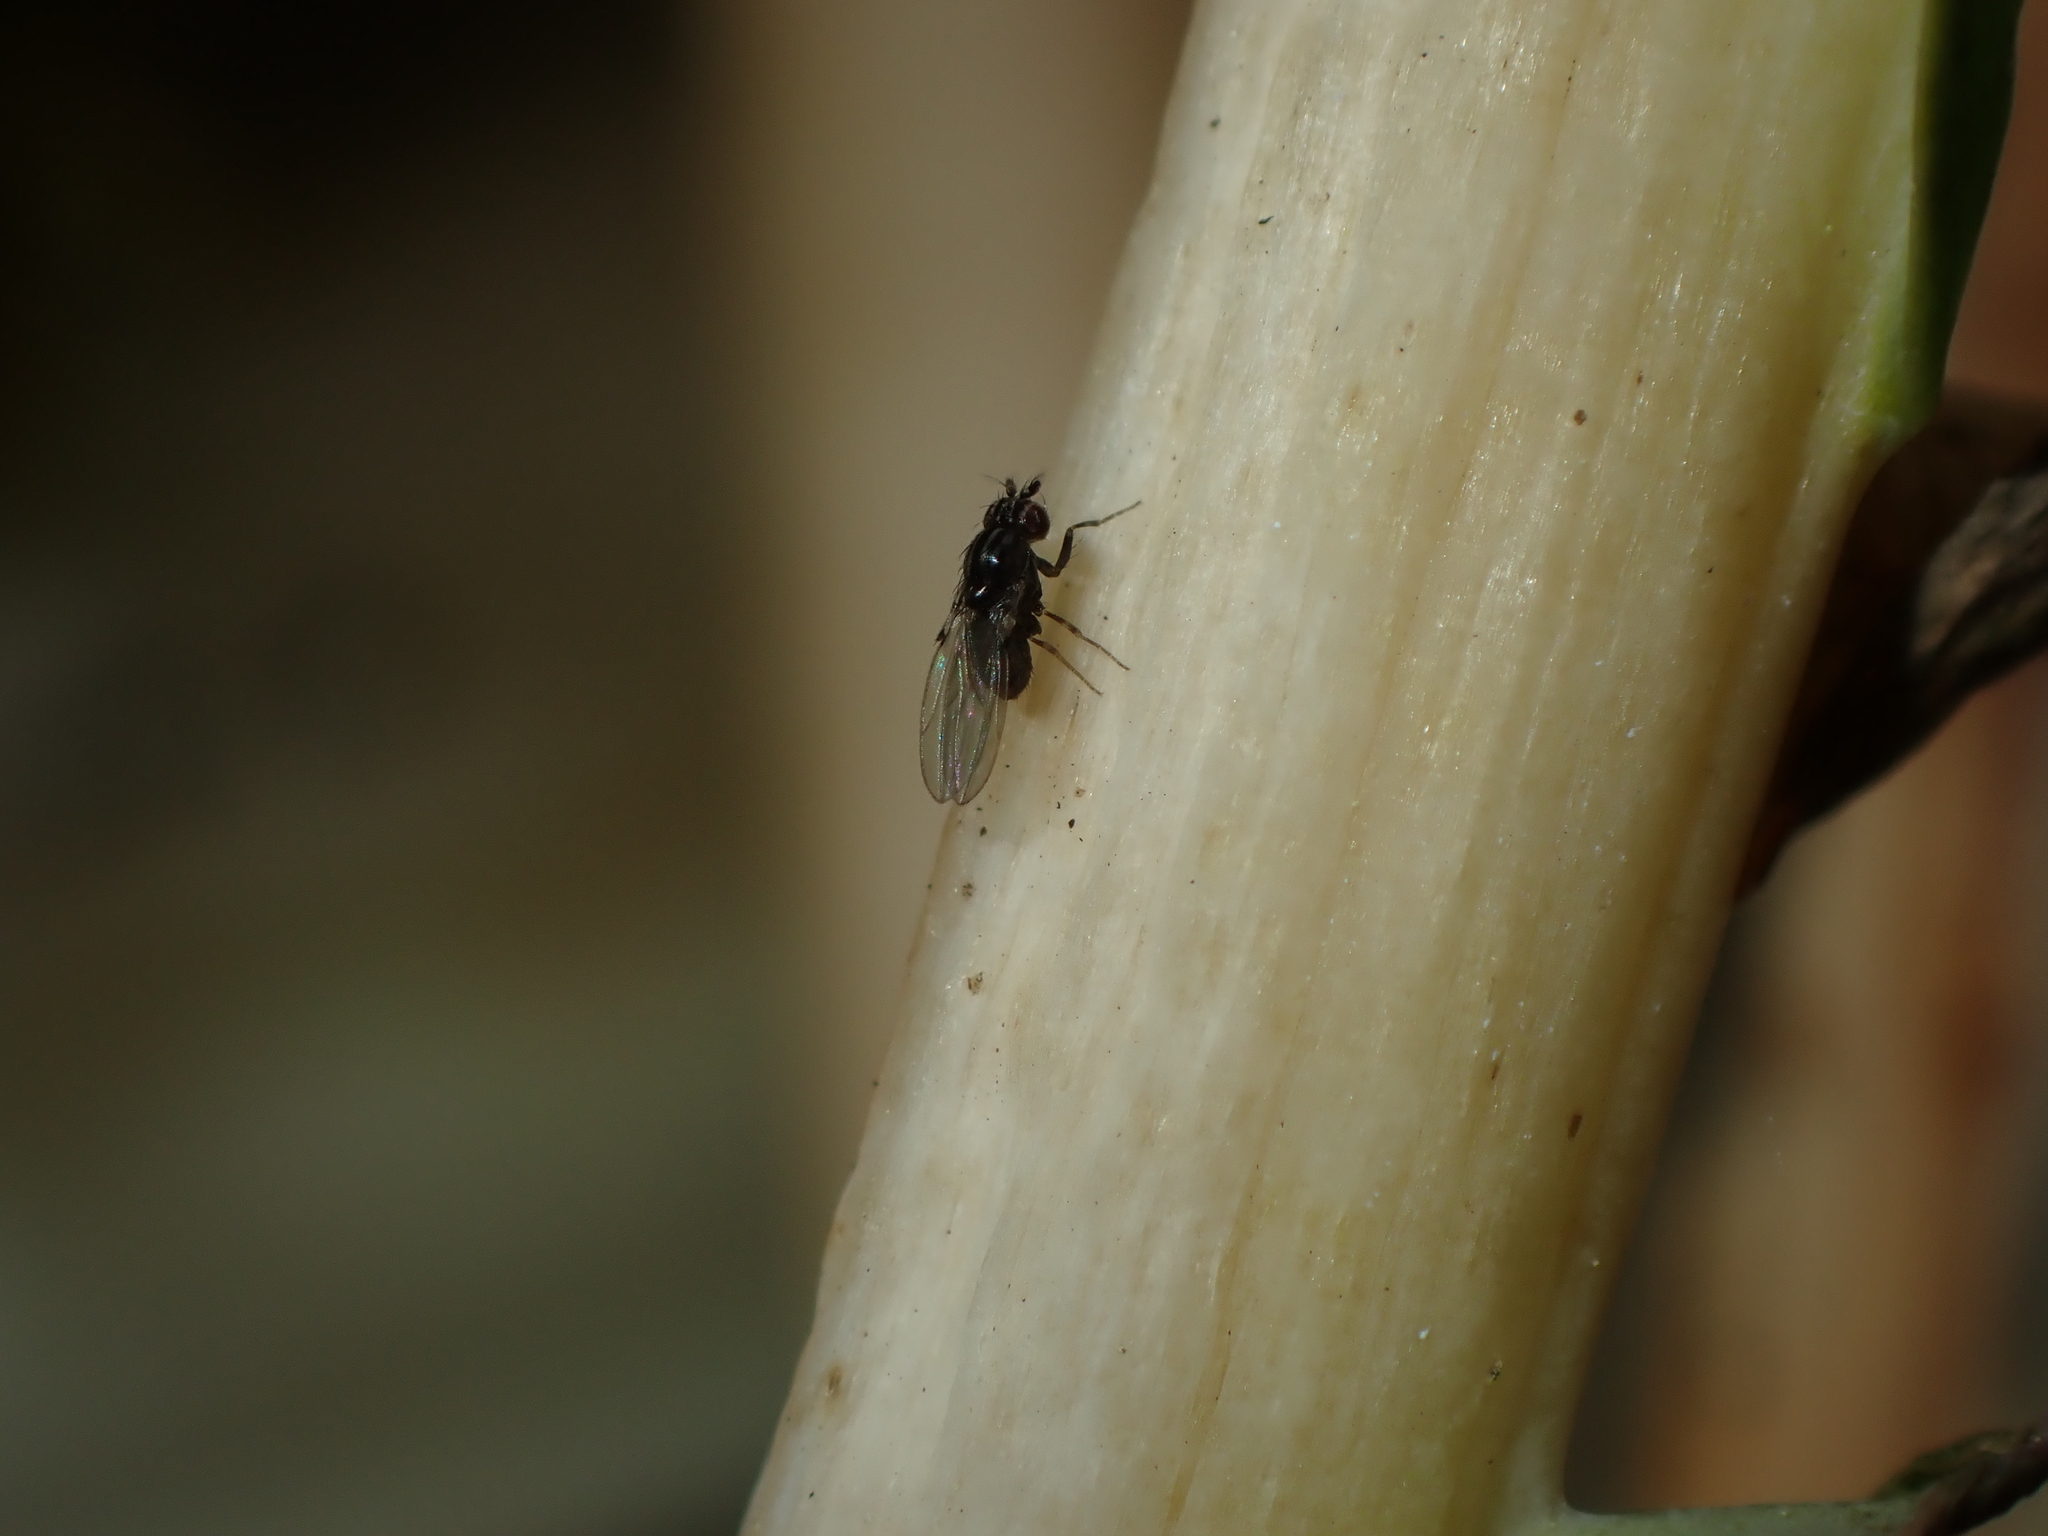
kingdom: Animalia
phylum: Arthropoda
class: Insecta
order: Diptera
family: Drosophilidae
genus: Dettopsomyia
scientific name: Dettopsomyia nigrovittata
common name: Pomace fly
